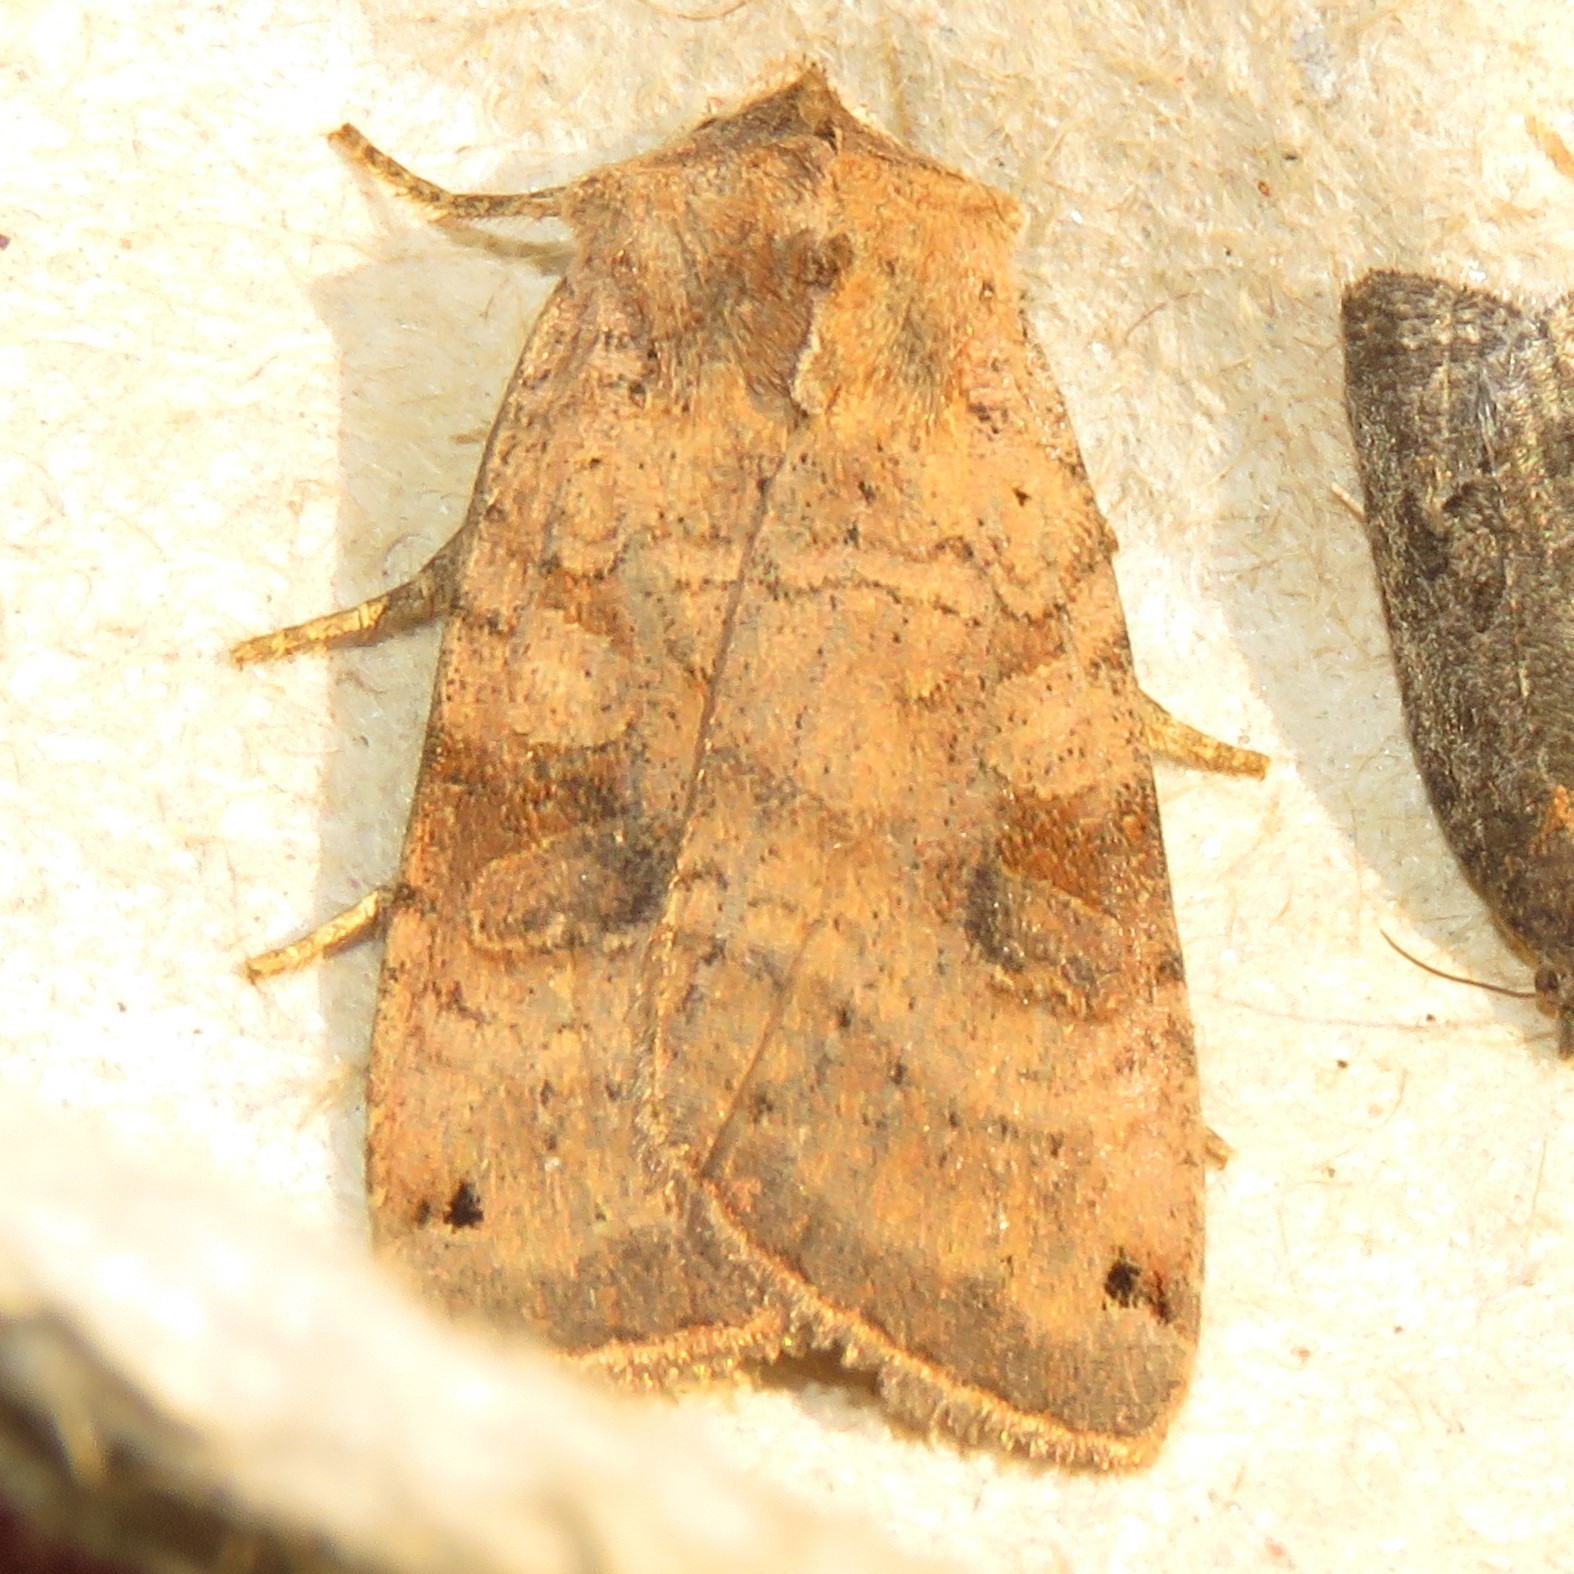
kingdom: Animalia
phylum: Arthropoda
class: Insecta
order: Lepidoptera
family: Noctuidae
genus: Xestia
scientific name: Xestia smithii
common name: Smith's dart
